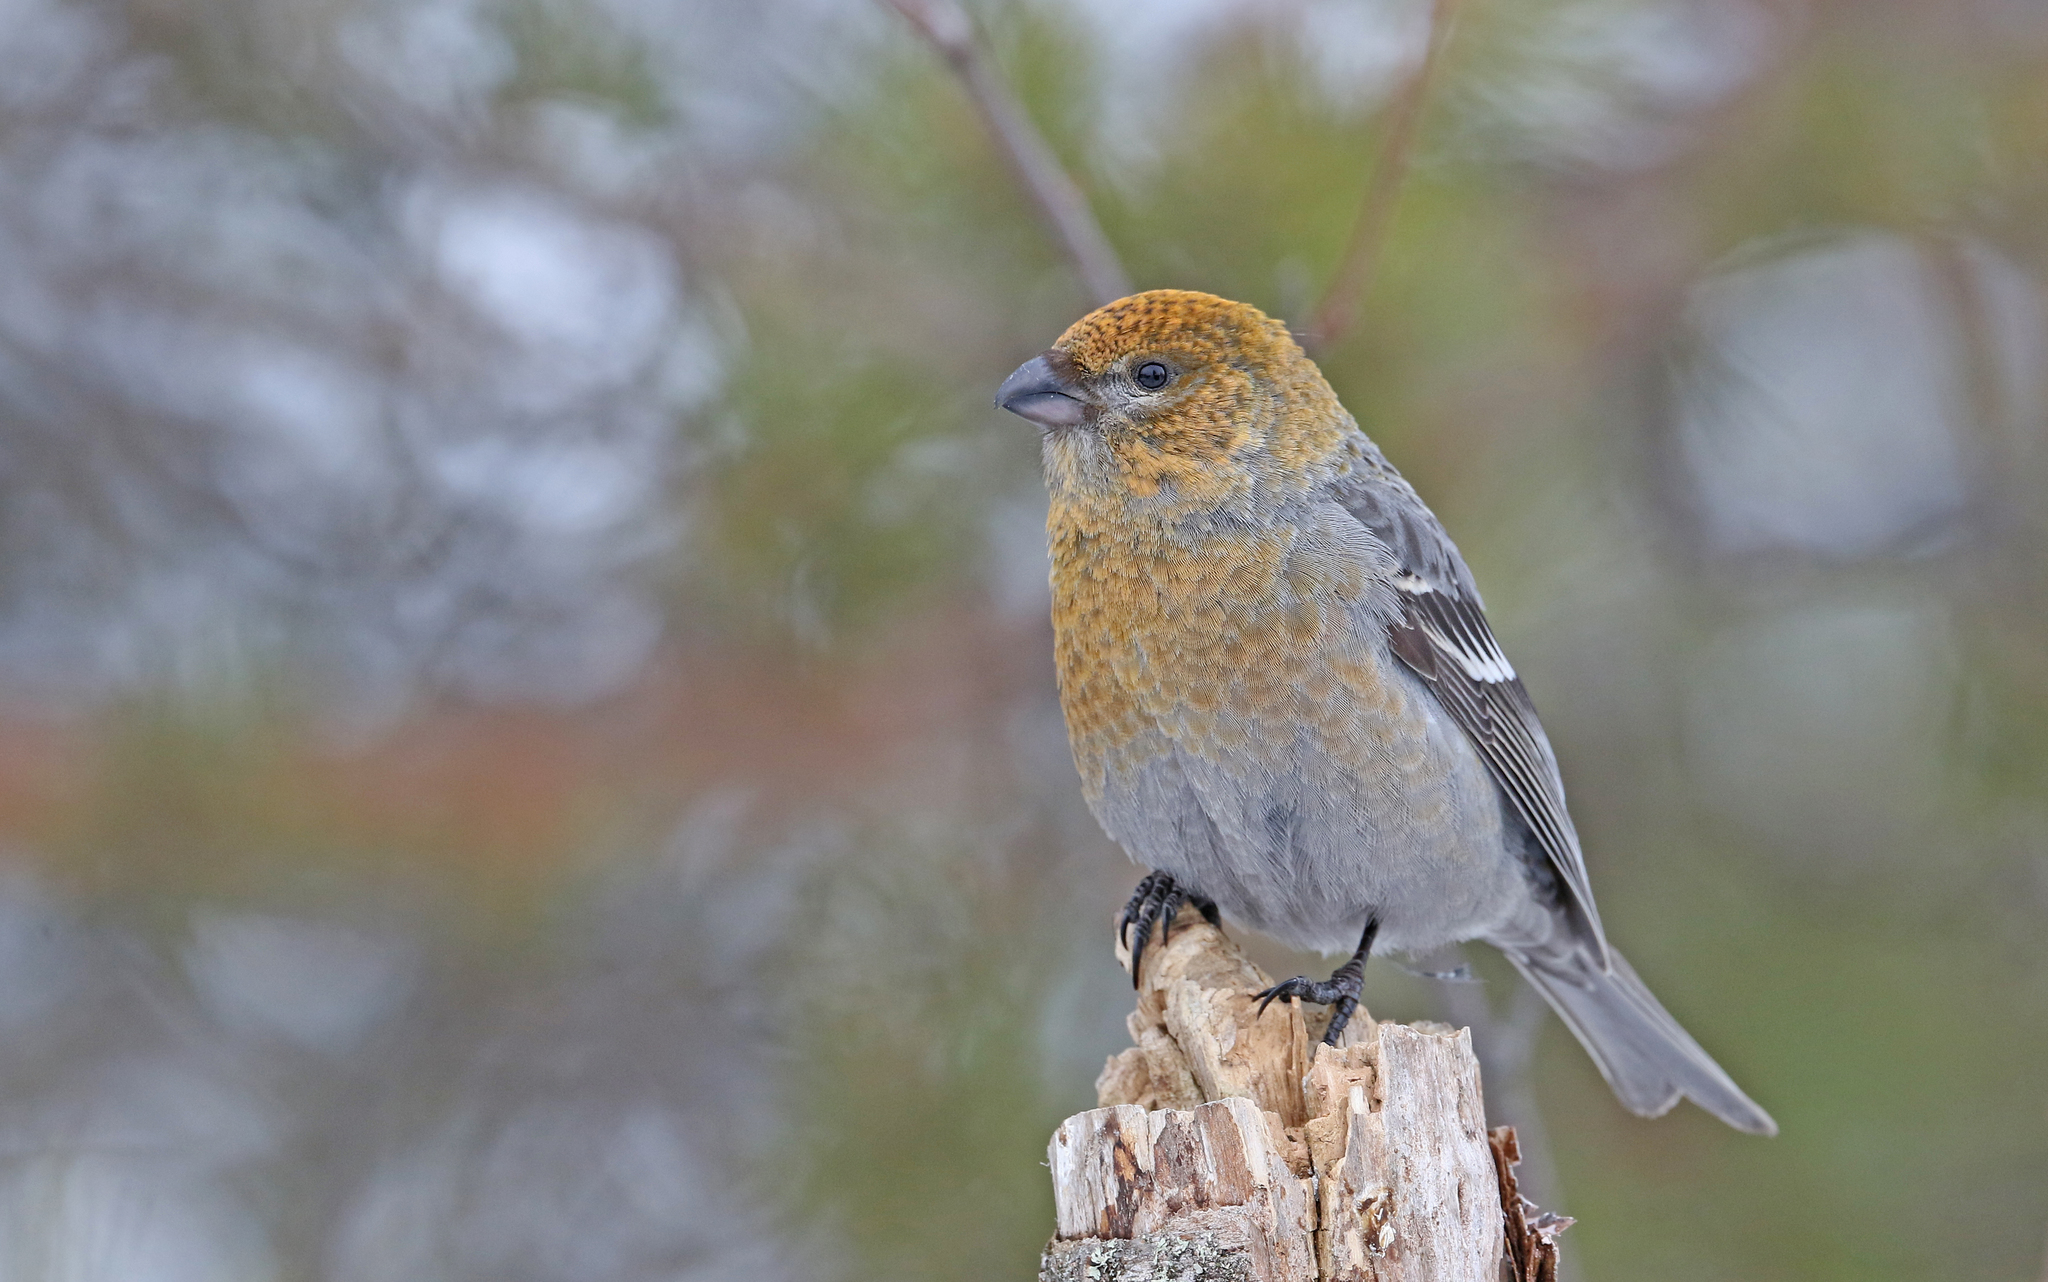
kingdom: Animalia
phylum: Chordata
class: Aves
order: Passeriformes
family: Fringillidae
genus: Pinicola
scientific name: Pinicola enucleator
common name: Pine grosbeak
